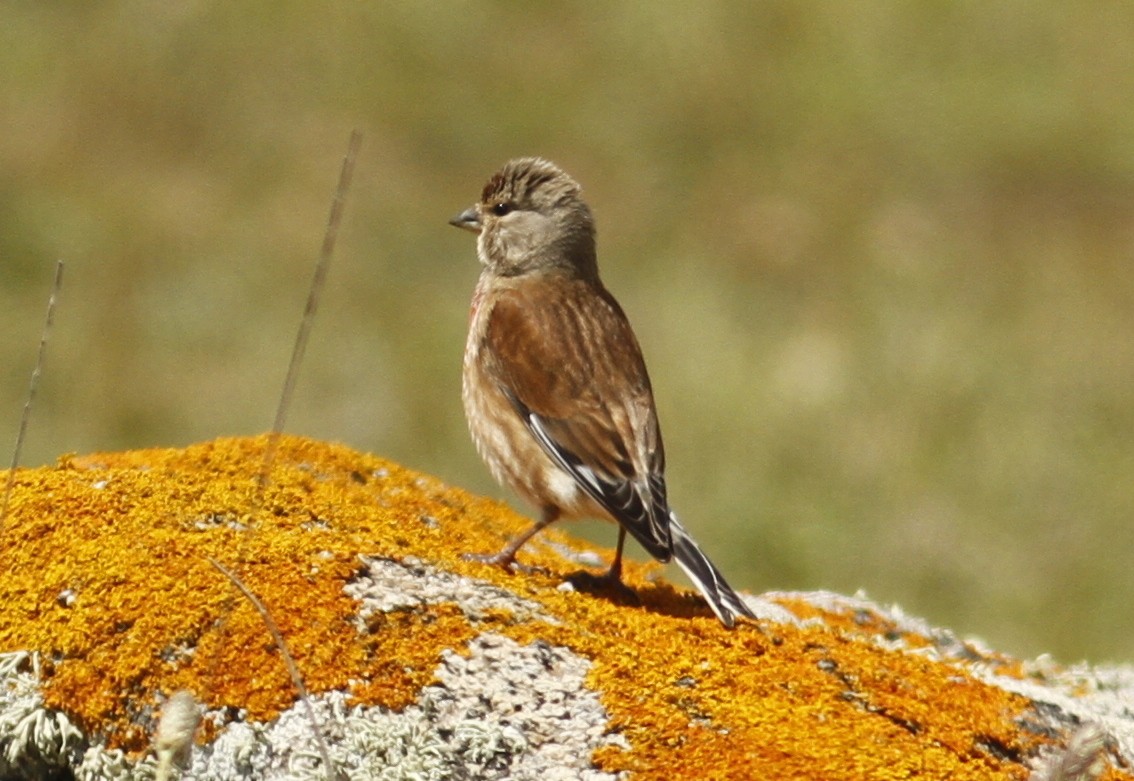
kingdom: Animalia
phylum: Chordata
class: Aves
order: Passeriformes
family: Fringillidae
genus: Linaria
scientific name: Linaria cannabina
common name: Common linnet
